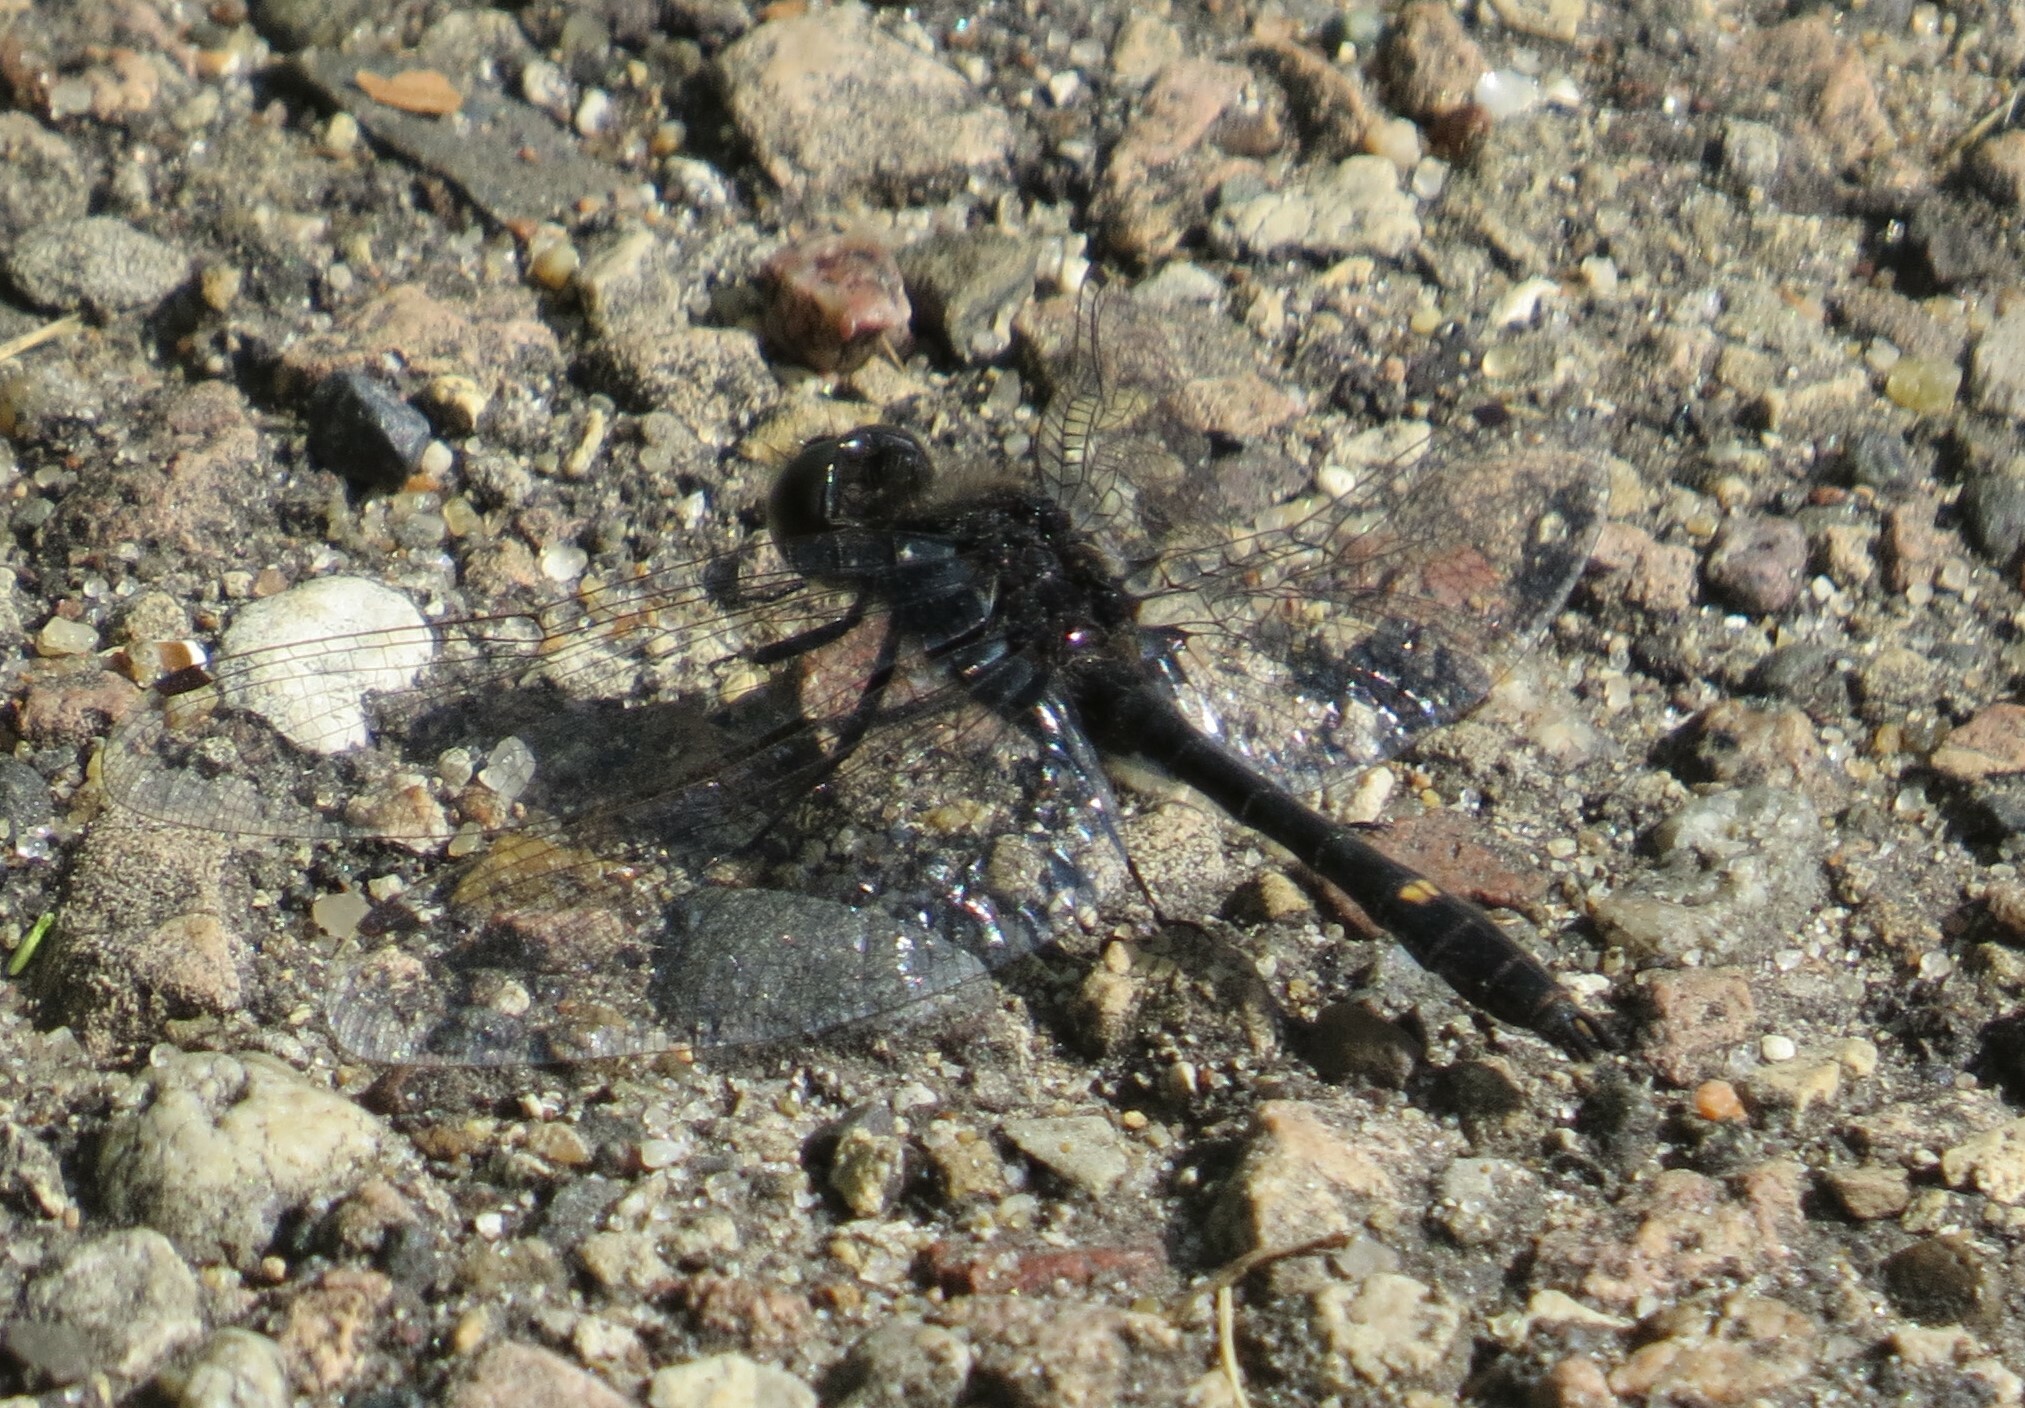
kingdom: Animalia
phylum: Arthropoda
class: Insecta
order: Odonata
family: Libellulidae
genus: Leucorrhinia
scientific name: Leucorrhinia intacta
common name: Dot-tailed whiteface
